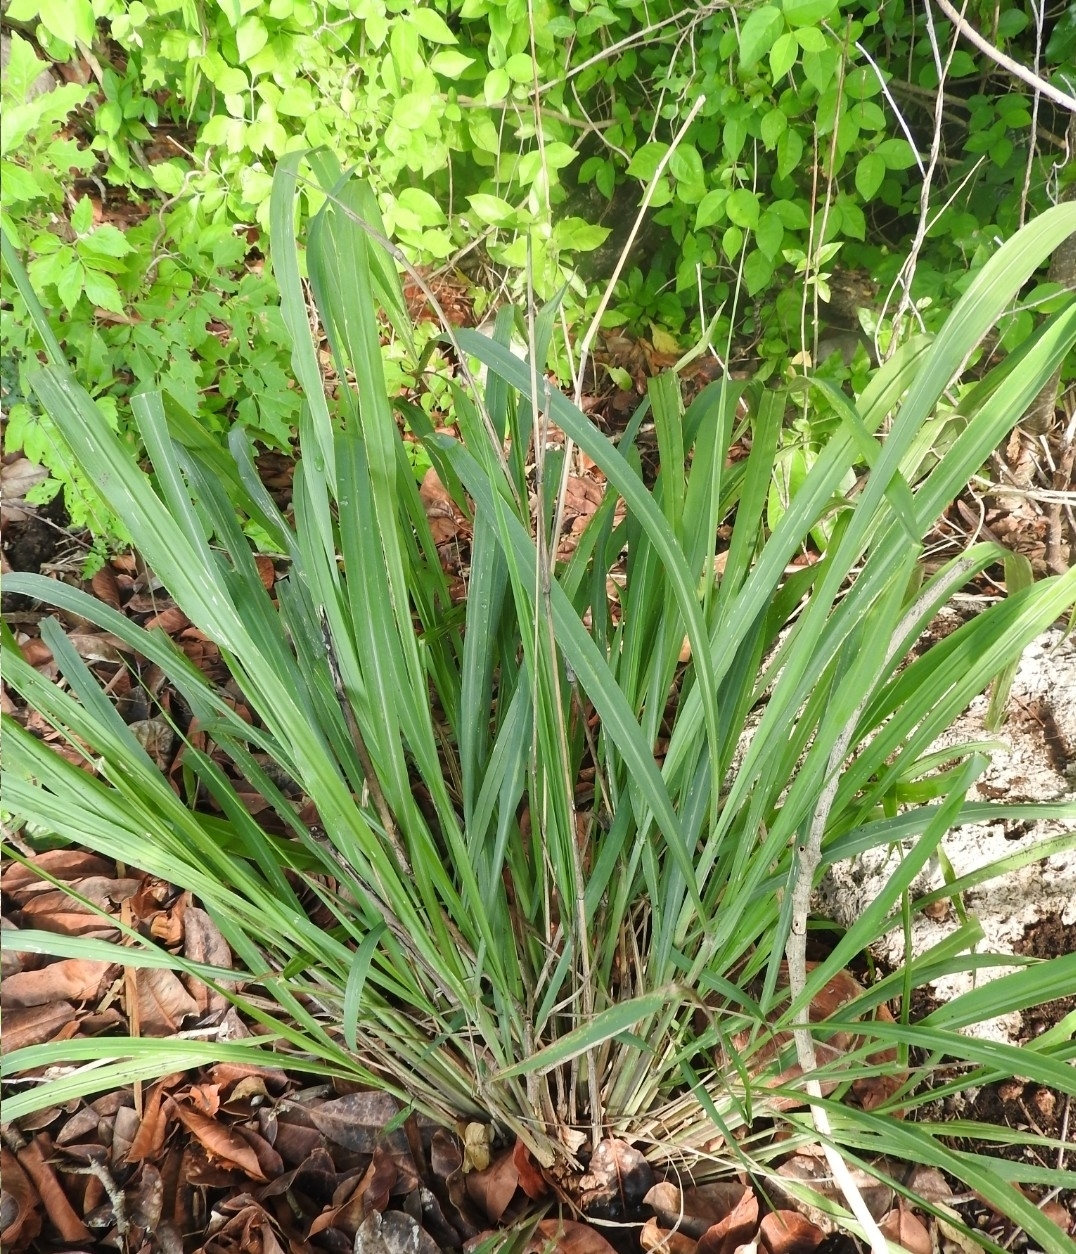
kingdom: Plantae
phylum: Tracheophyta
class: Liliopsida
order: Poales
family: Poaceae
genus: Cymbopogon
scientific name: Cymbopogon citratus
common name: Lemon grass
